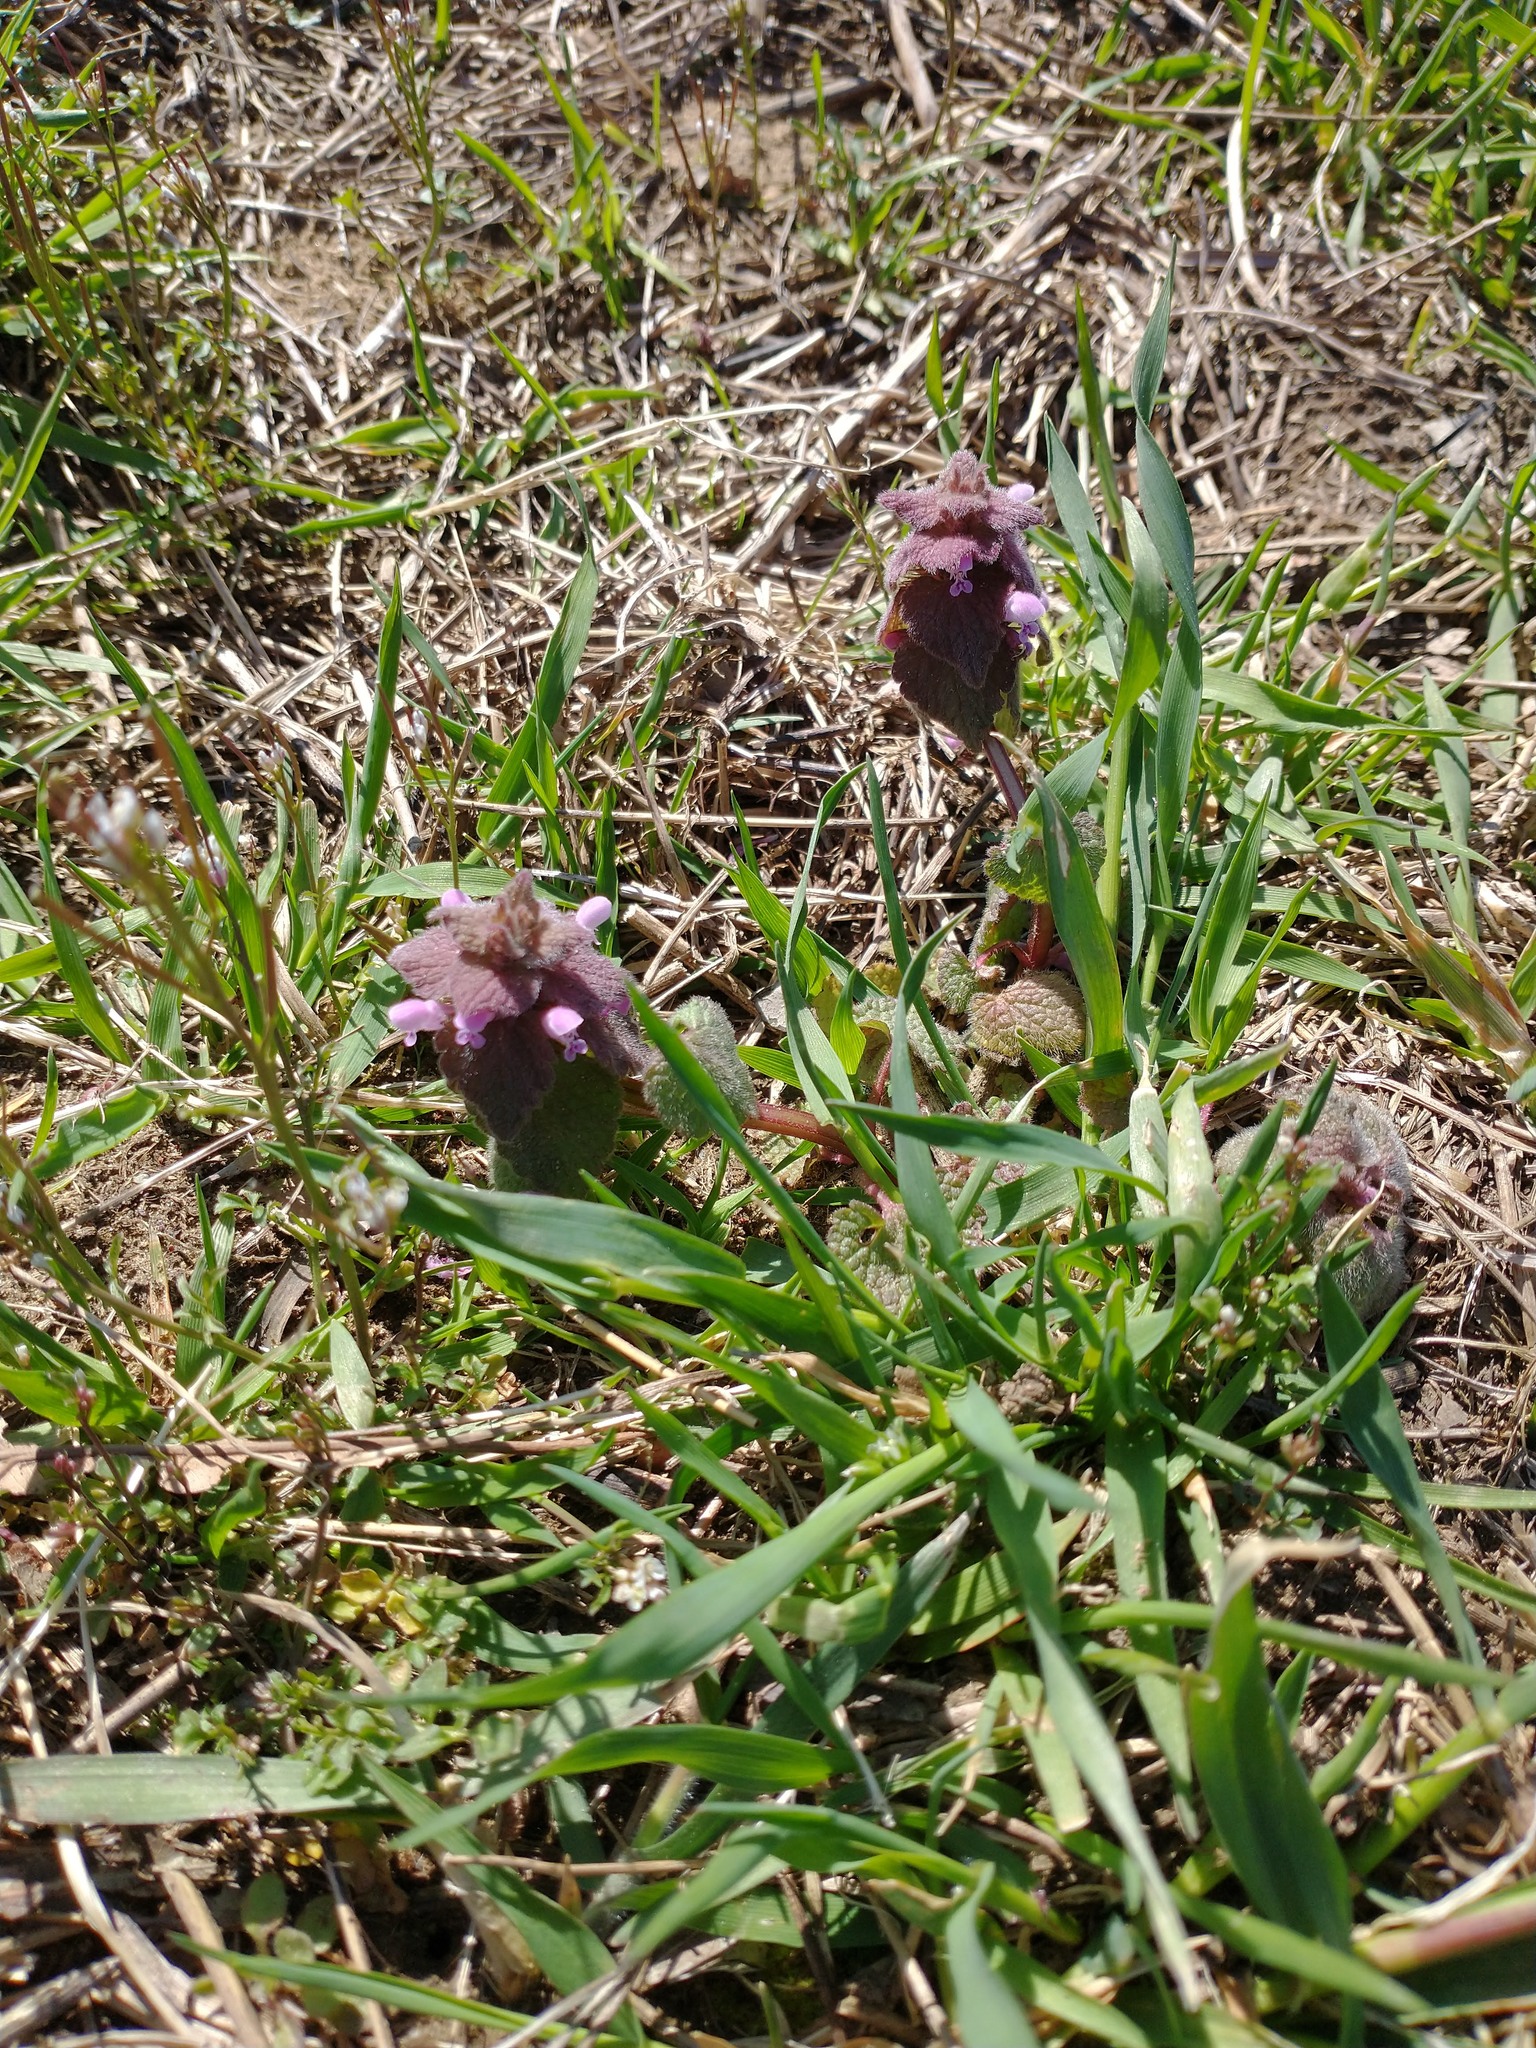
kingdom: Plantae
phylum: Tracheophyta
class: Magnoliopsida
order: Lamiales
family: Lamiaceae
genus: Lamium
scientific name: Lamium purpureum
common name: Red dead-nettle
